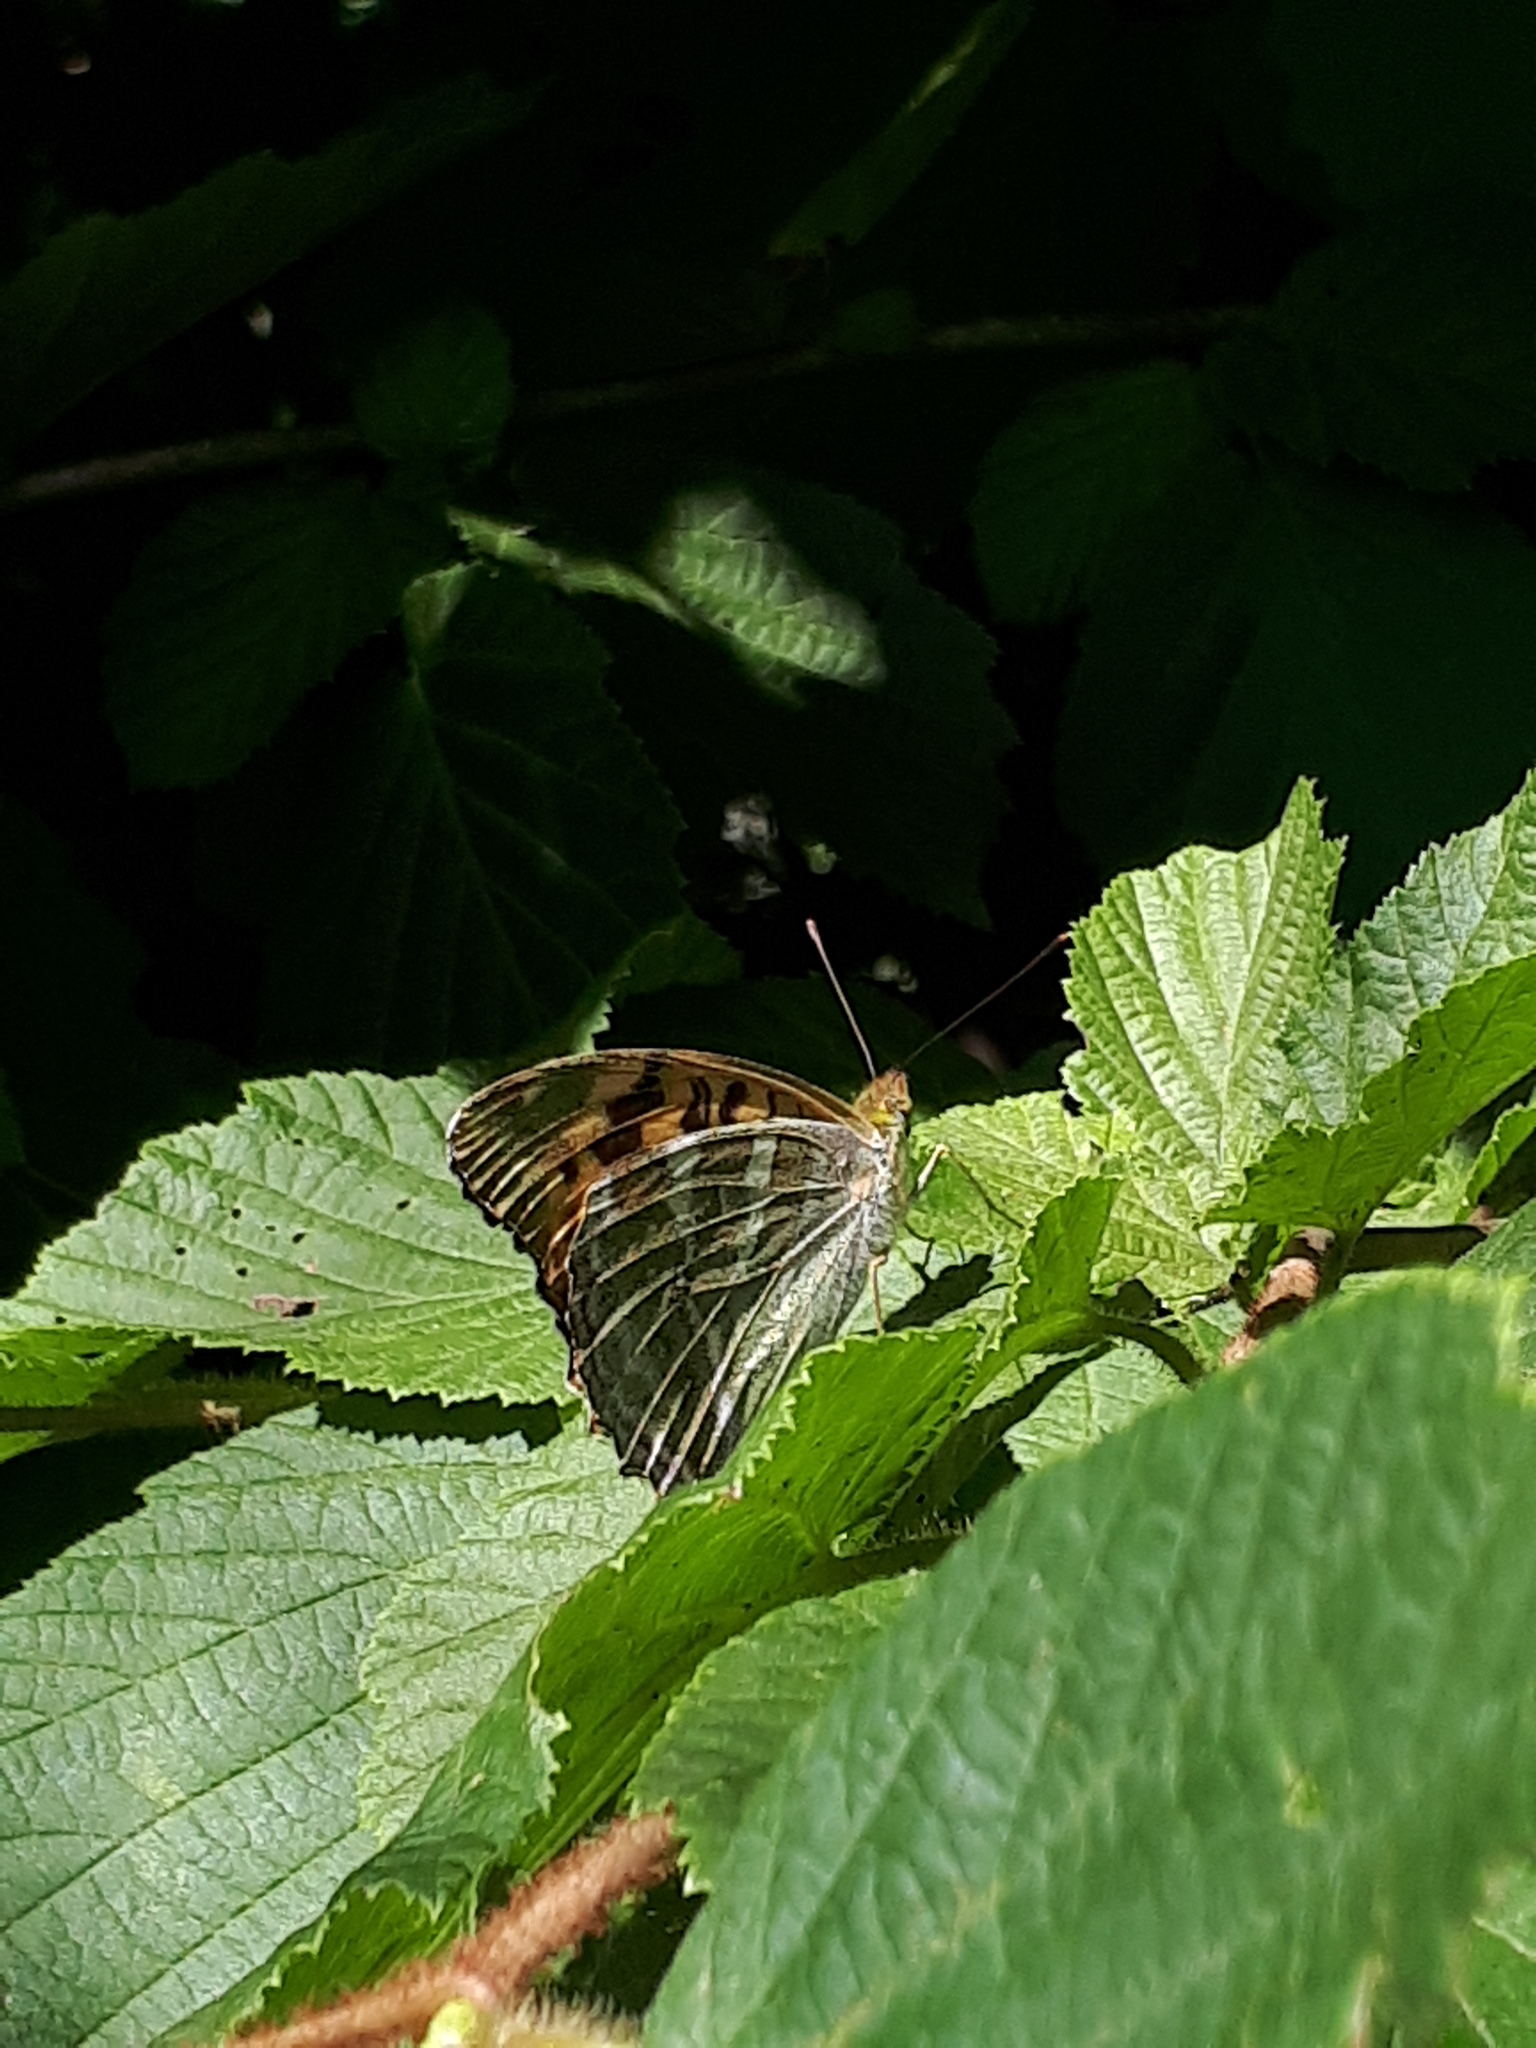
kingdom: Animalia
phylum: Arthropoda
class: Insecta
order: Lepidoptera
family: Nymphalidae
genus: Argynnis
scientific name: Argynnis paphia
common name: Silver-washed fritillary
